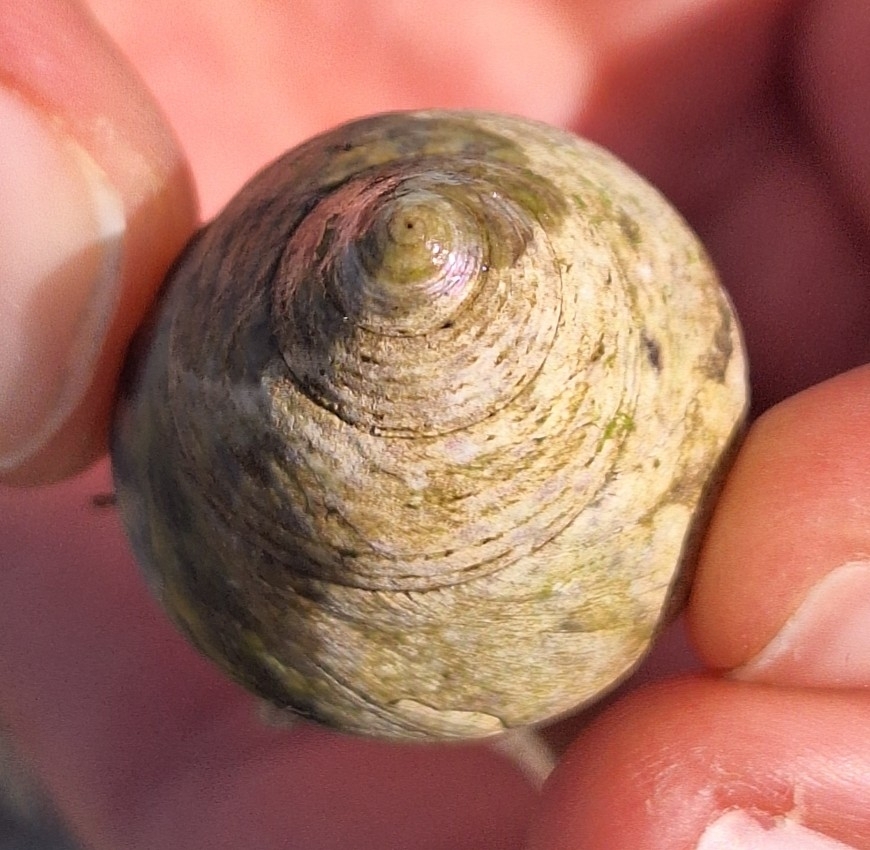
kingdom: Animalia
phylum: Mollusca
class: Gastropoda
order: Trochida
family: Trochidae
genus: Phorcus
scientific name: Phorcus turbinatus
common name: Turbinate monodont
